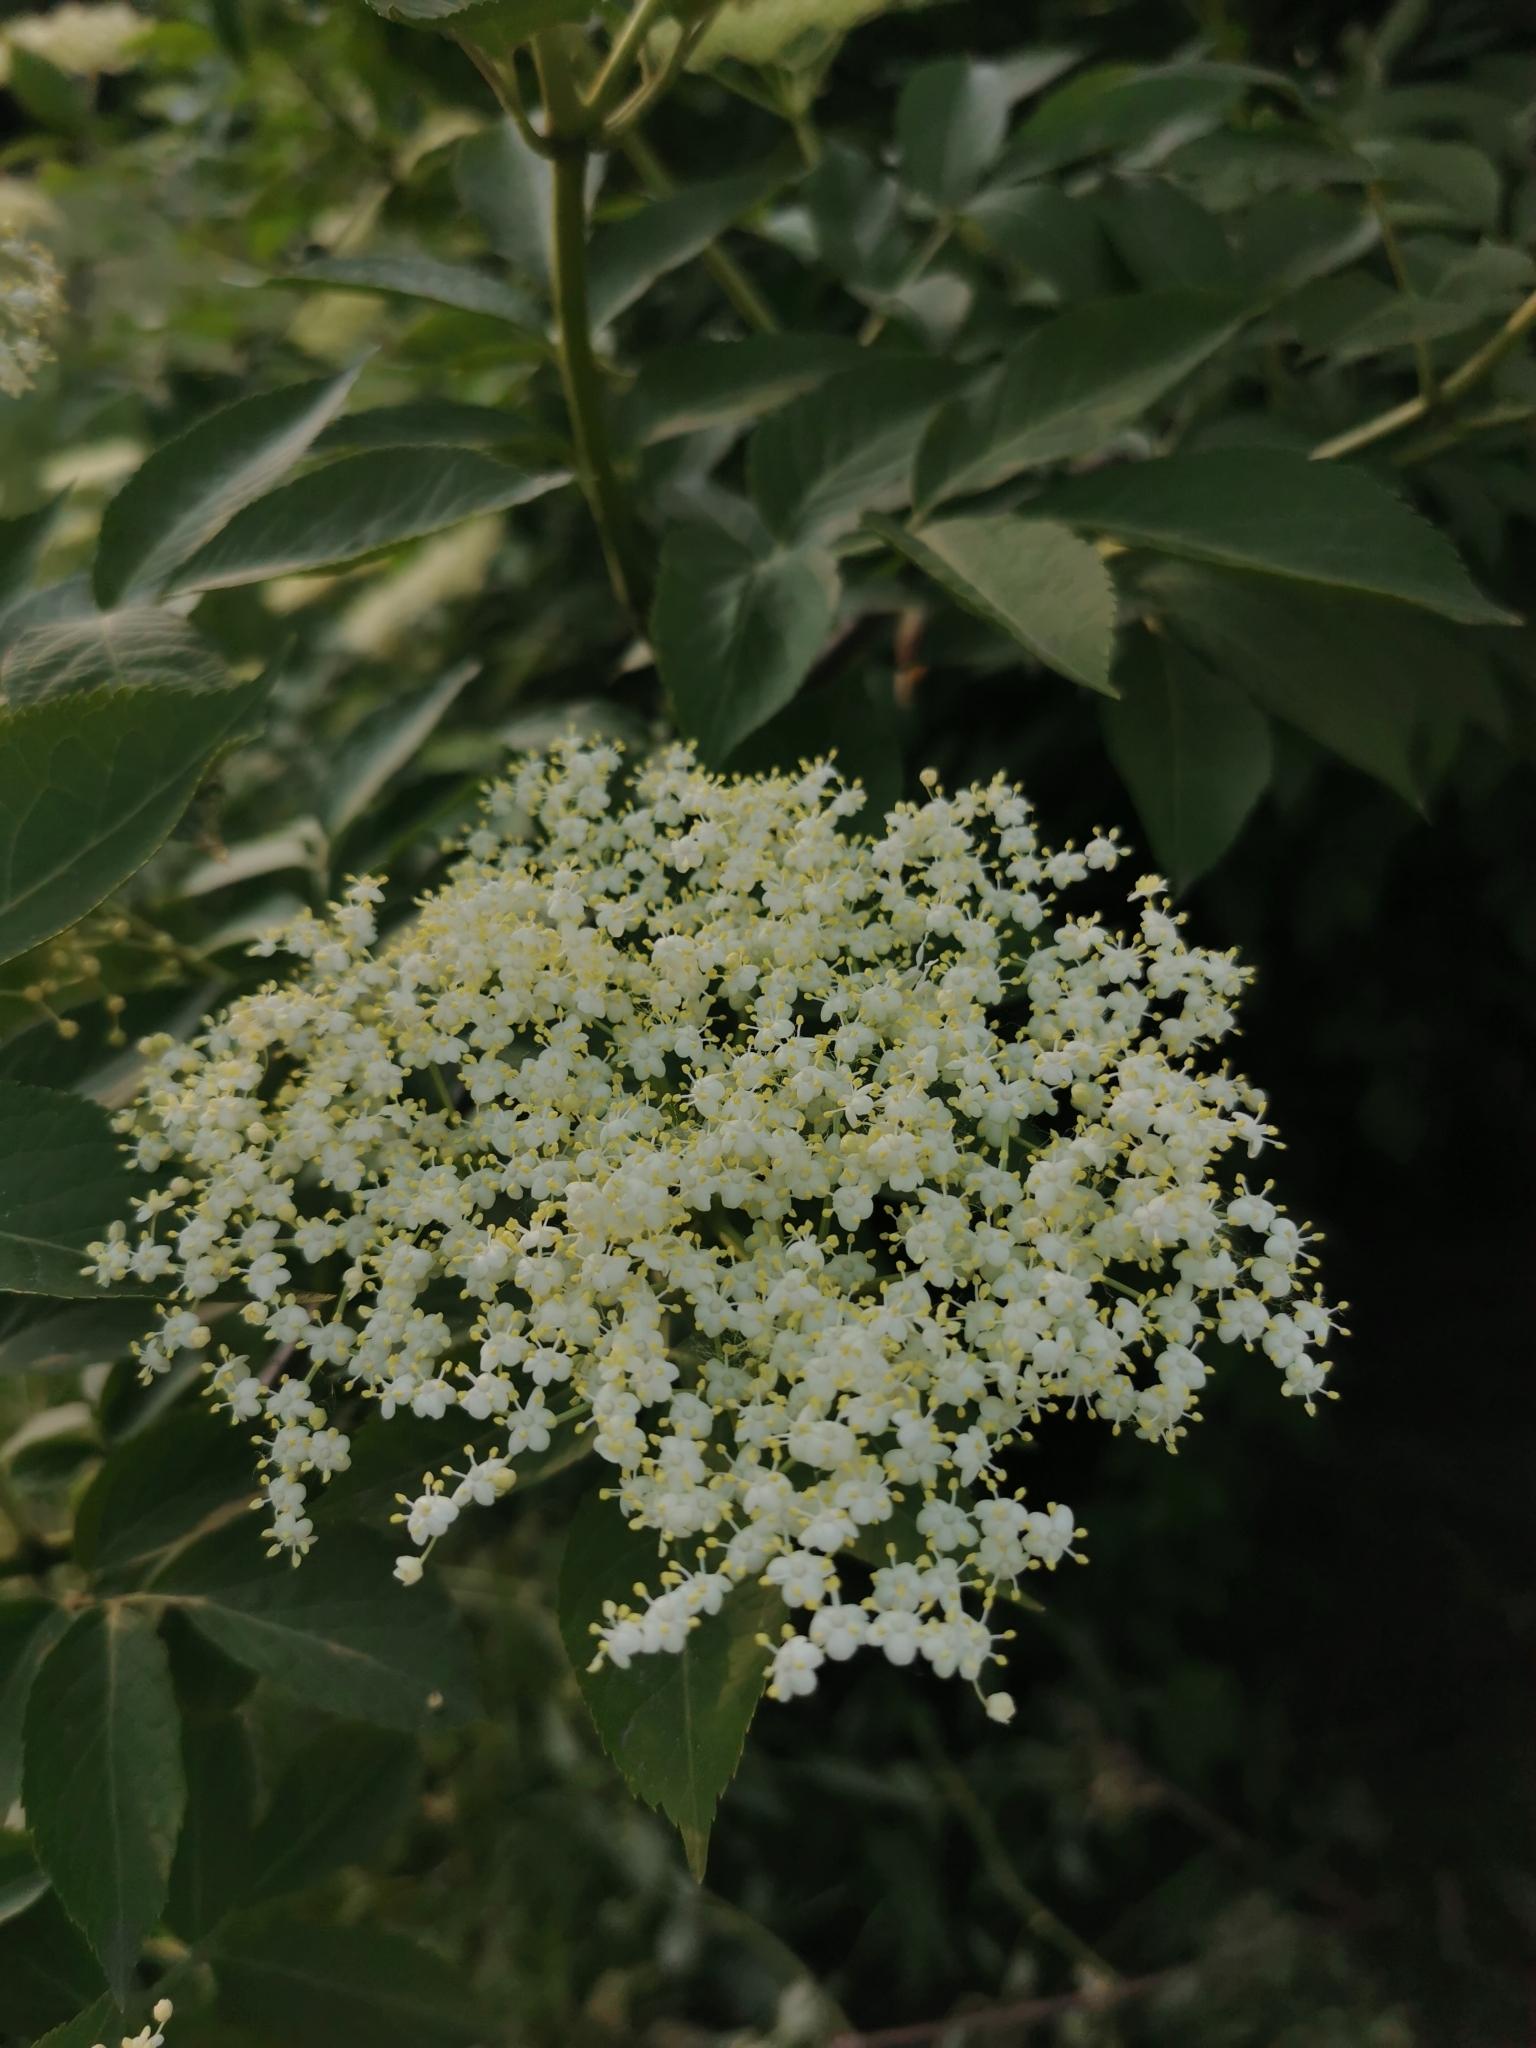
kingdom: Plantae
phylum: Tracheophyta
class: Magnoliopsida
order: Dipsacales
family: Viburnaceae
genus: Sambucus
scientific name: Sambucus nigra
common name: Elder
